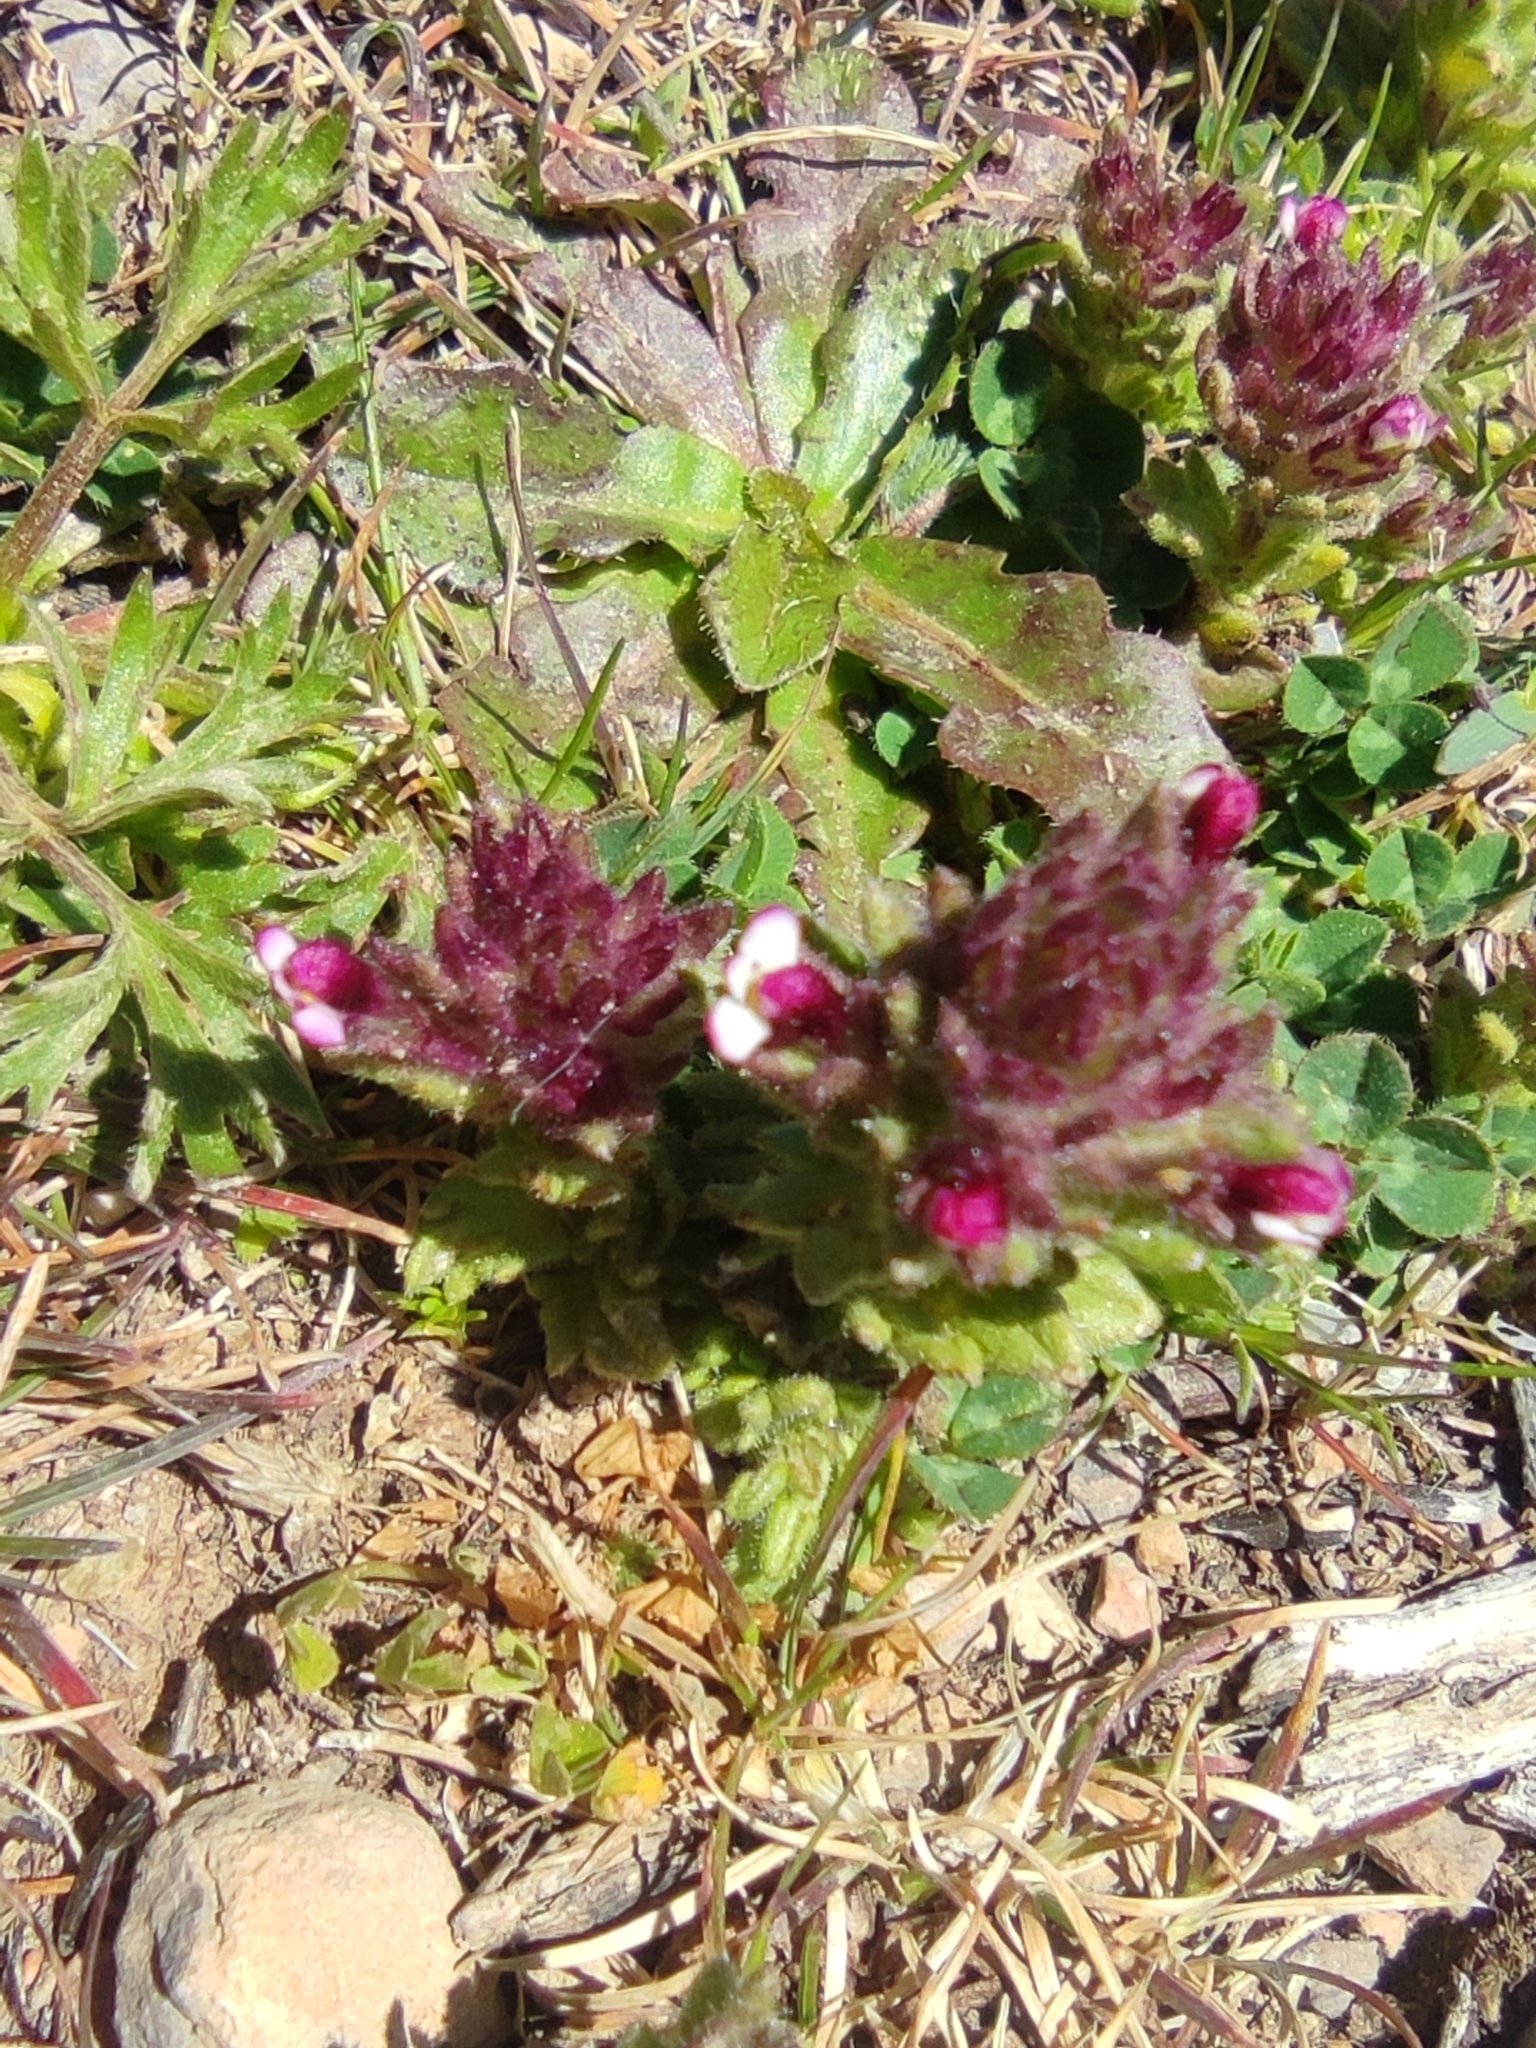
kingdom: Plantae
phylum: Tracheophyta
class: Magnoliopsida
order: Lamiales
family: Orobanchaceae
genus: Parentucellia
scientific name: Parentucellia latifolia
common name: Broadleaf glandweed
